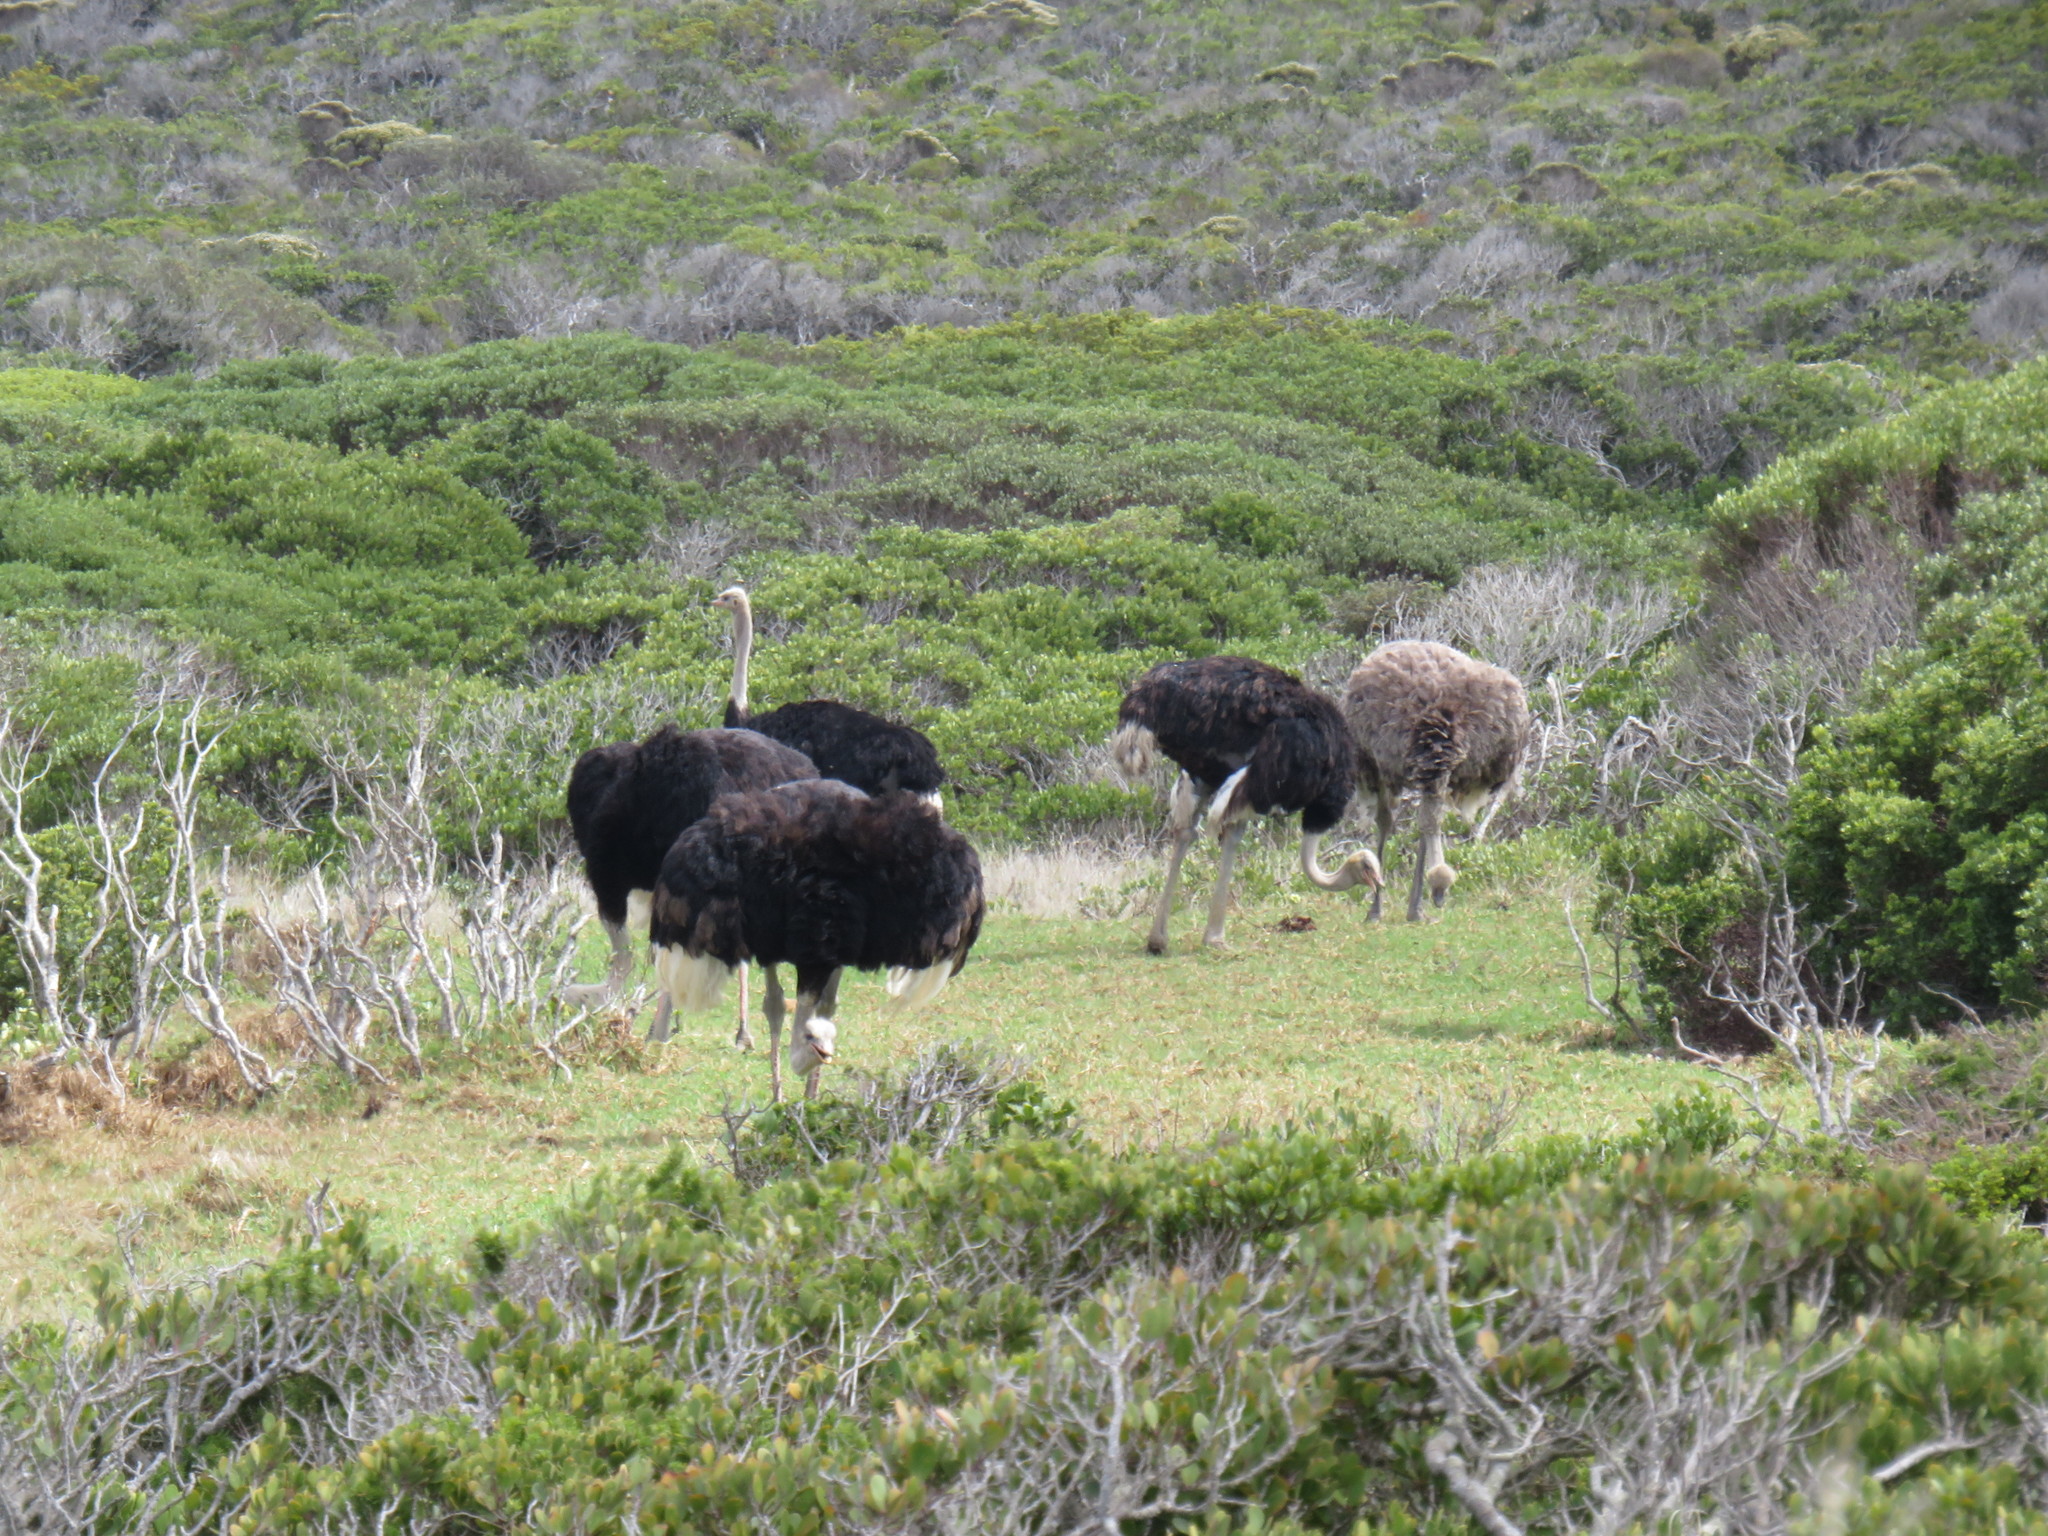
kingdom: Animalia
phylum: Chordata
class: Aves
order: Struthioniformes
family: Struthionidae
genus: Struthio
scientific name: Struthio camelus
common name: Common ostrich
